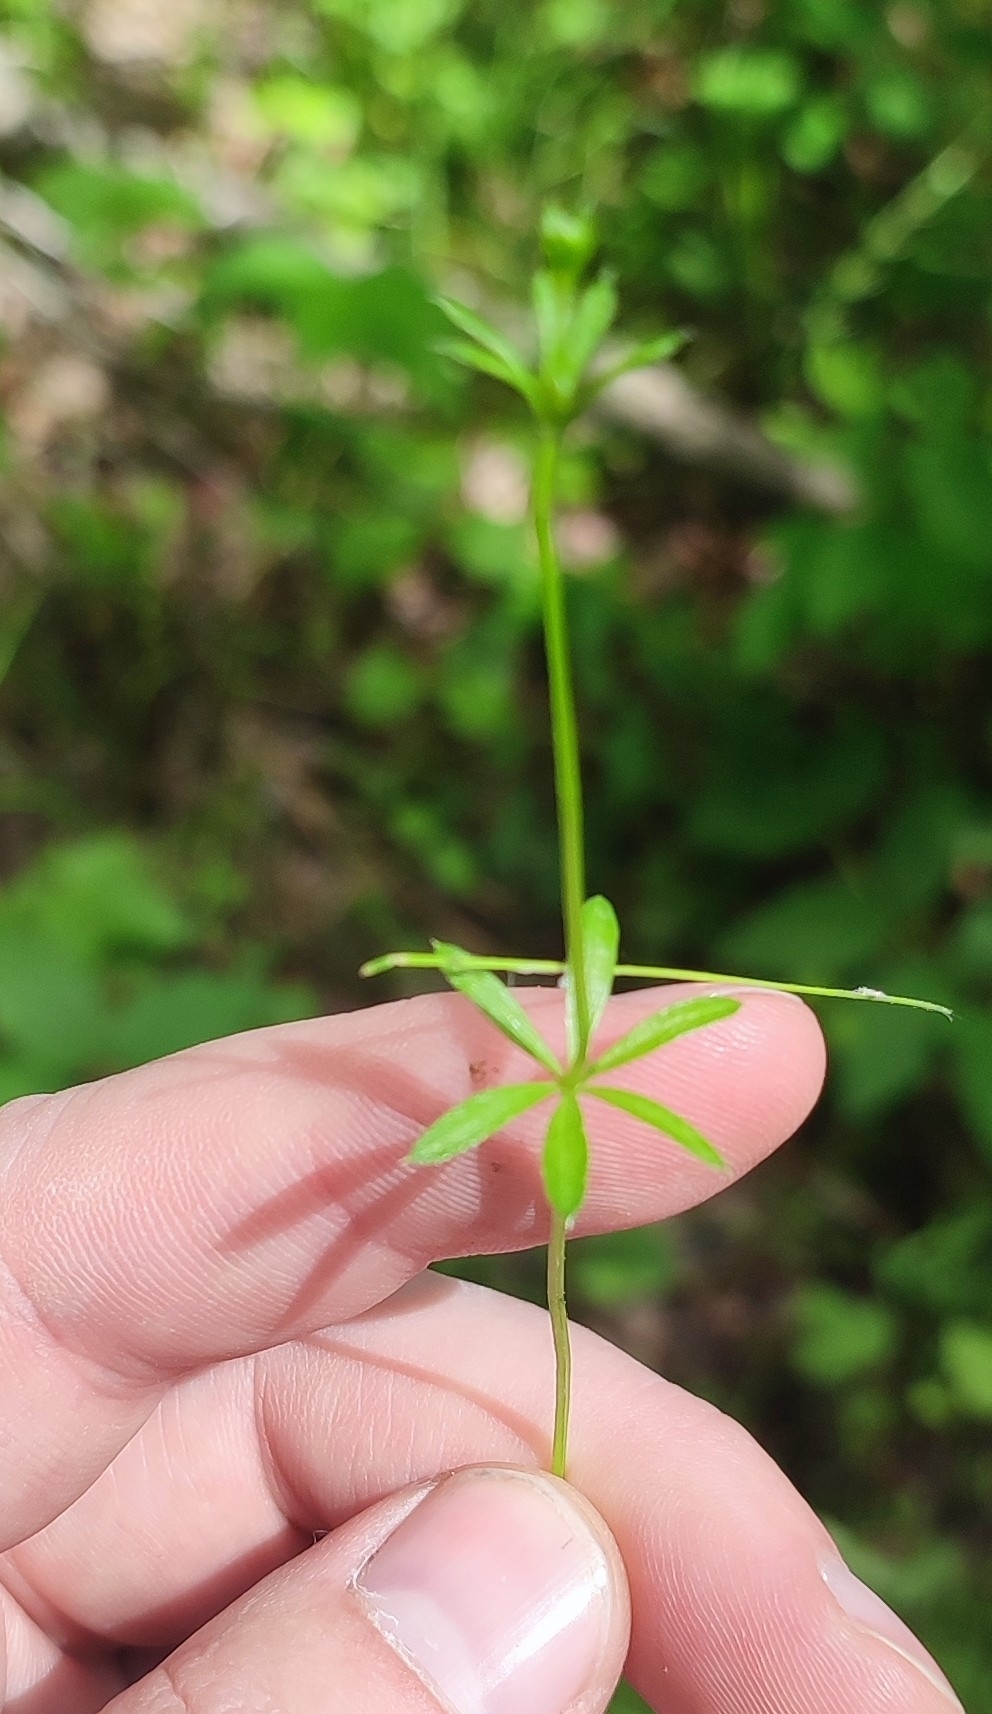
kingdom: Plantae
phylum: Tracheophyta
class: Magnoliopsida
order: Gentianales
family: Rubiaceae
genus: Galium
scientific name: Galium uliginosum
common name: Fen bedstraw
